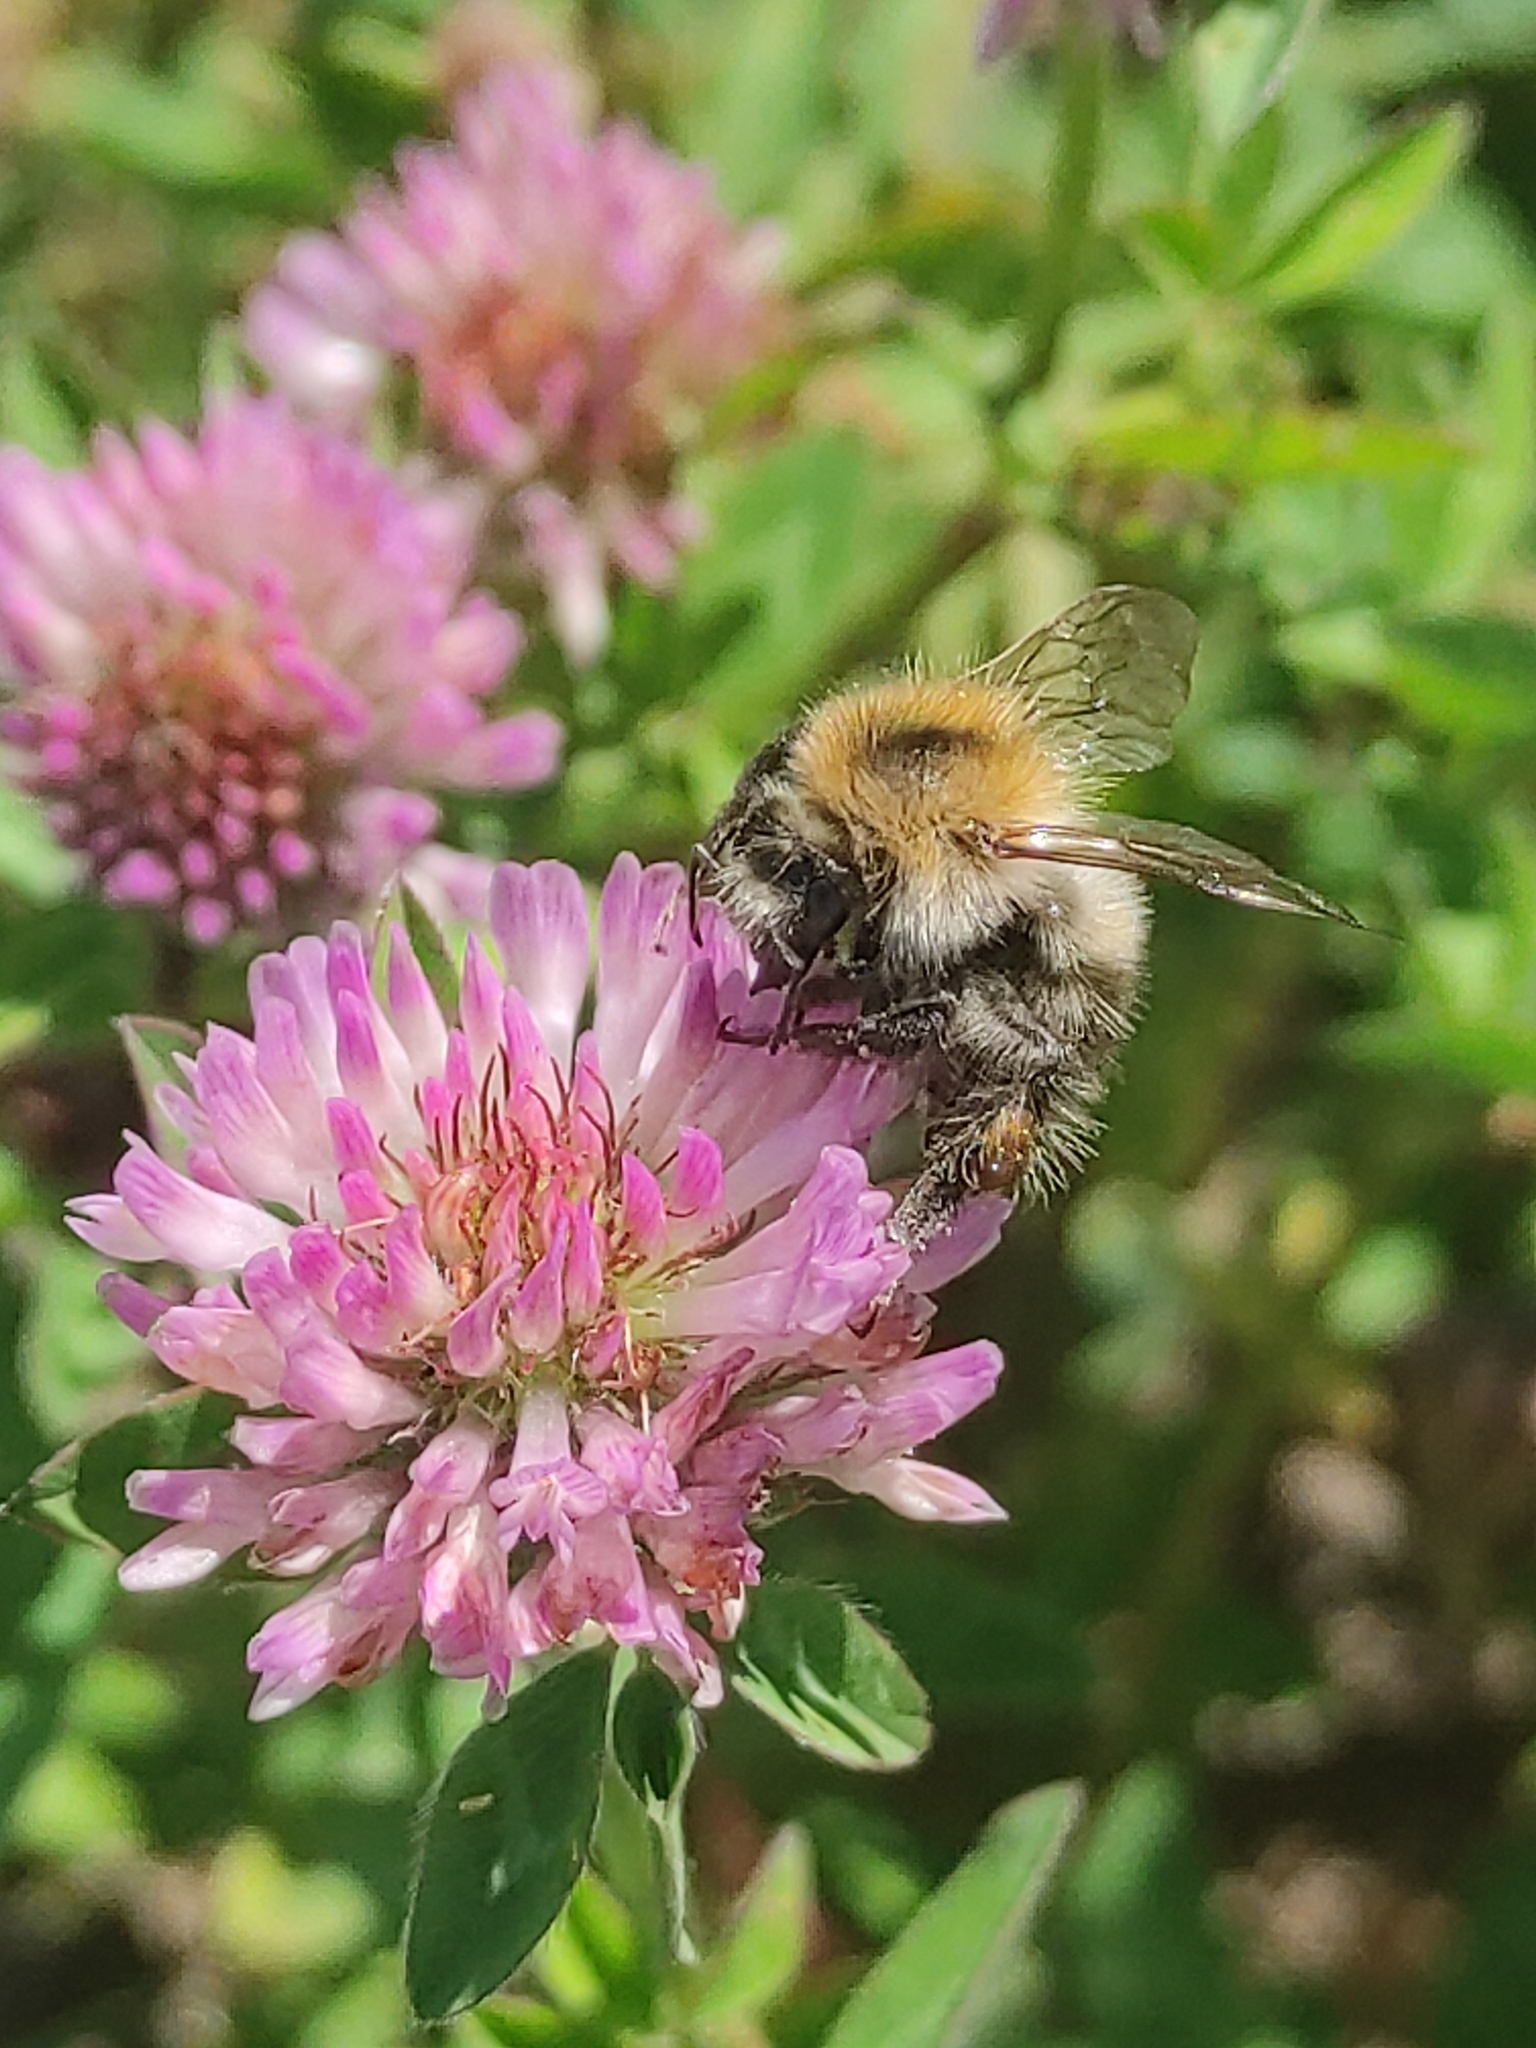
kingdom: Animalia
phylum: Arthropoda
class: Insecta
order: Hymenoptera
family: Apidae
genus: Bombus
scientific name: Bombus pascuorum
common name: Common carder bee
